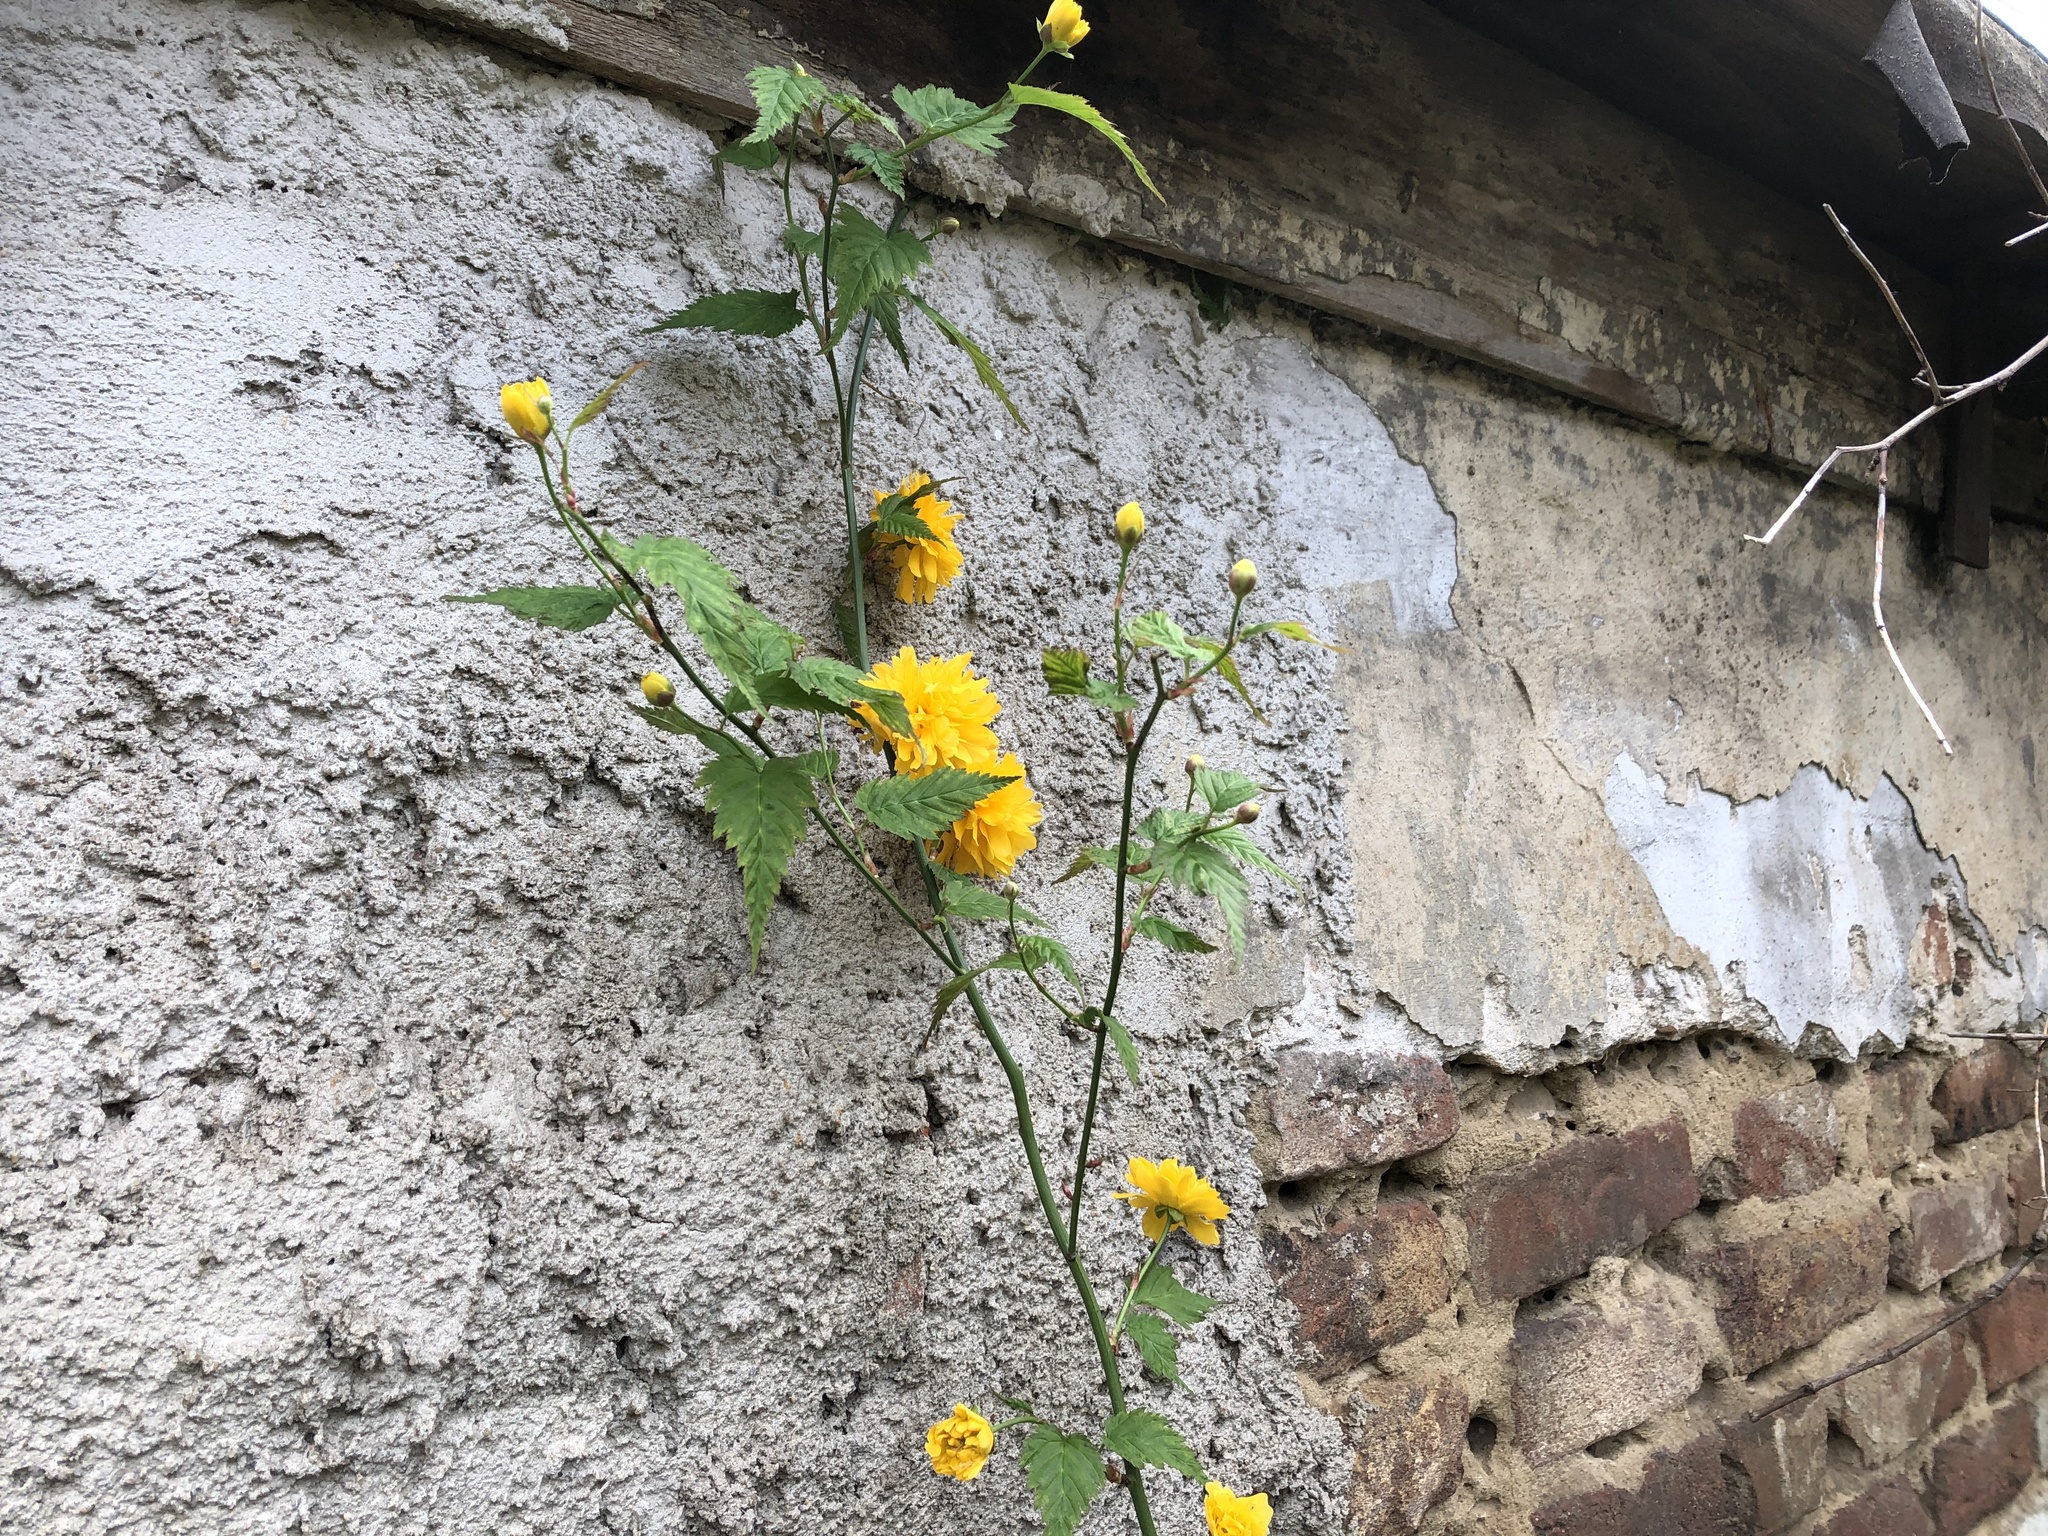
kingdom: Plantae
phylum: Tracheophyta
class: Magnoliopsida
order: Rosales
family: Rosaceae
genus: Kerria
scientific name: Kerria japonica
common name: Japanese kerria
